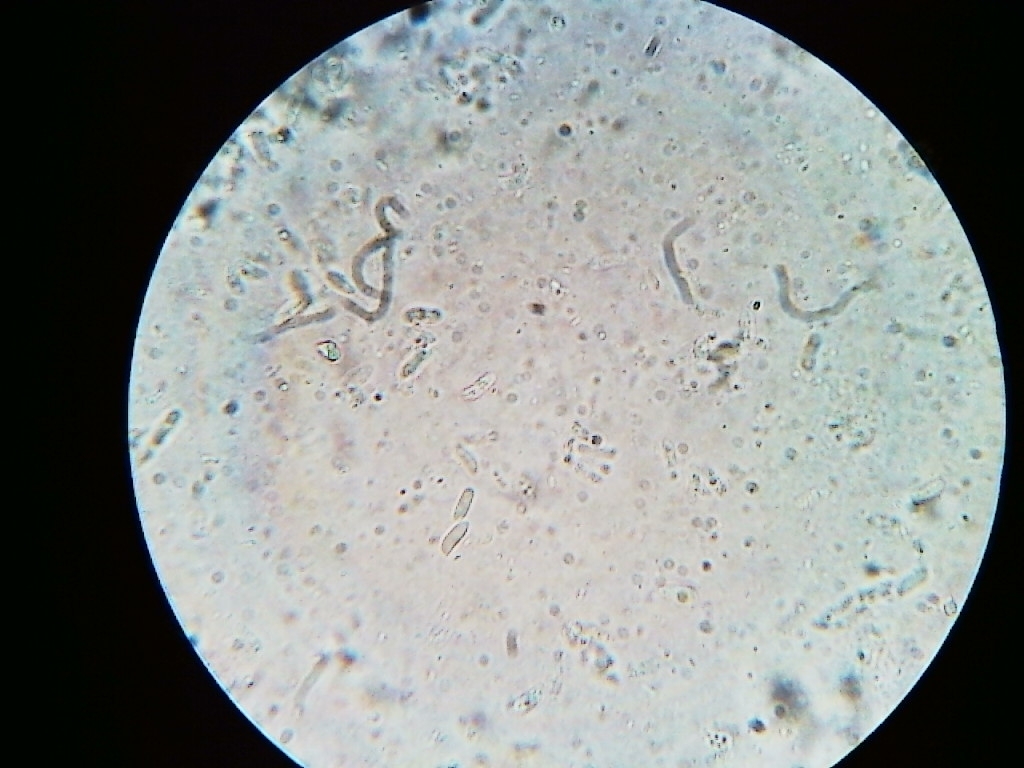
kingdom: Fungi
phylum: Basidiomycota
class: Agaricomycetes
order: Polyporales
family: Polyporaceae
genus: Trametes
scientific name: Trametes pubescens
